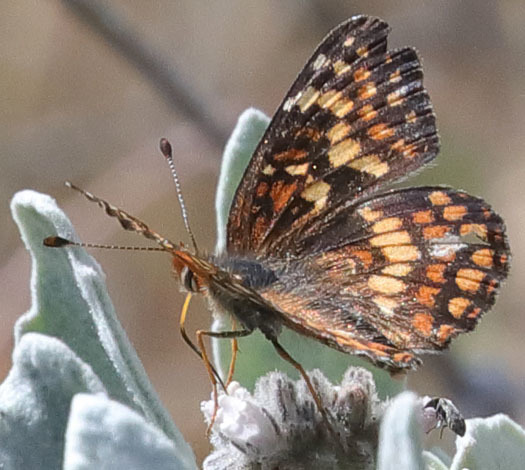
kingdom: Animalia
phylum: Arthropoda
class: Insecta
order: Lepidoptera
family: Nymphalidae
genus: Chlosyne
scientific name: Chlosyne gabbii
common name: Gabb's checkerspot
